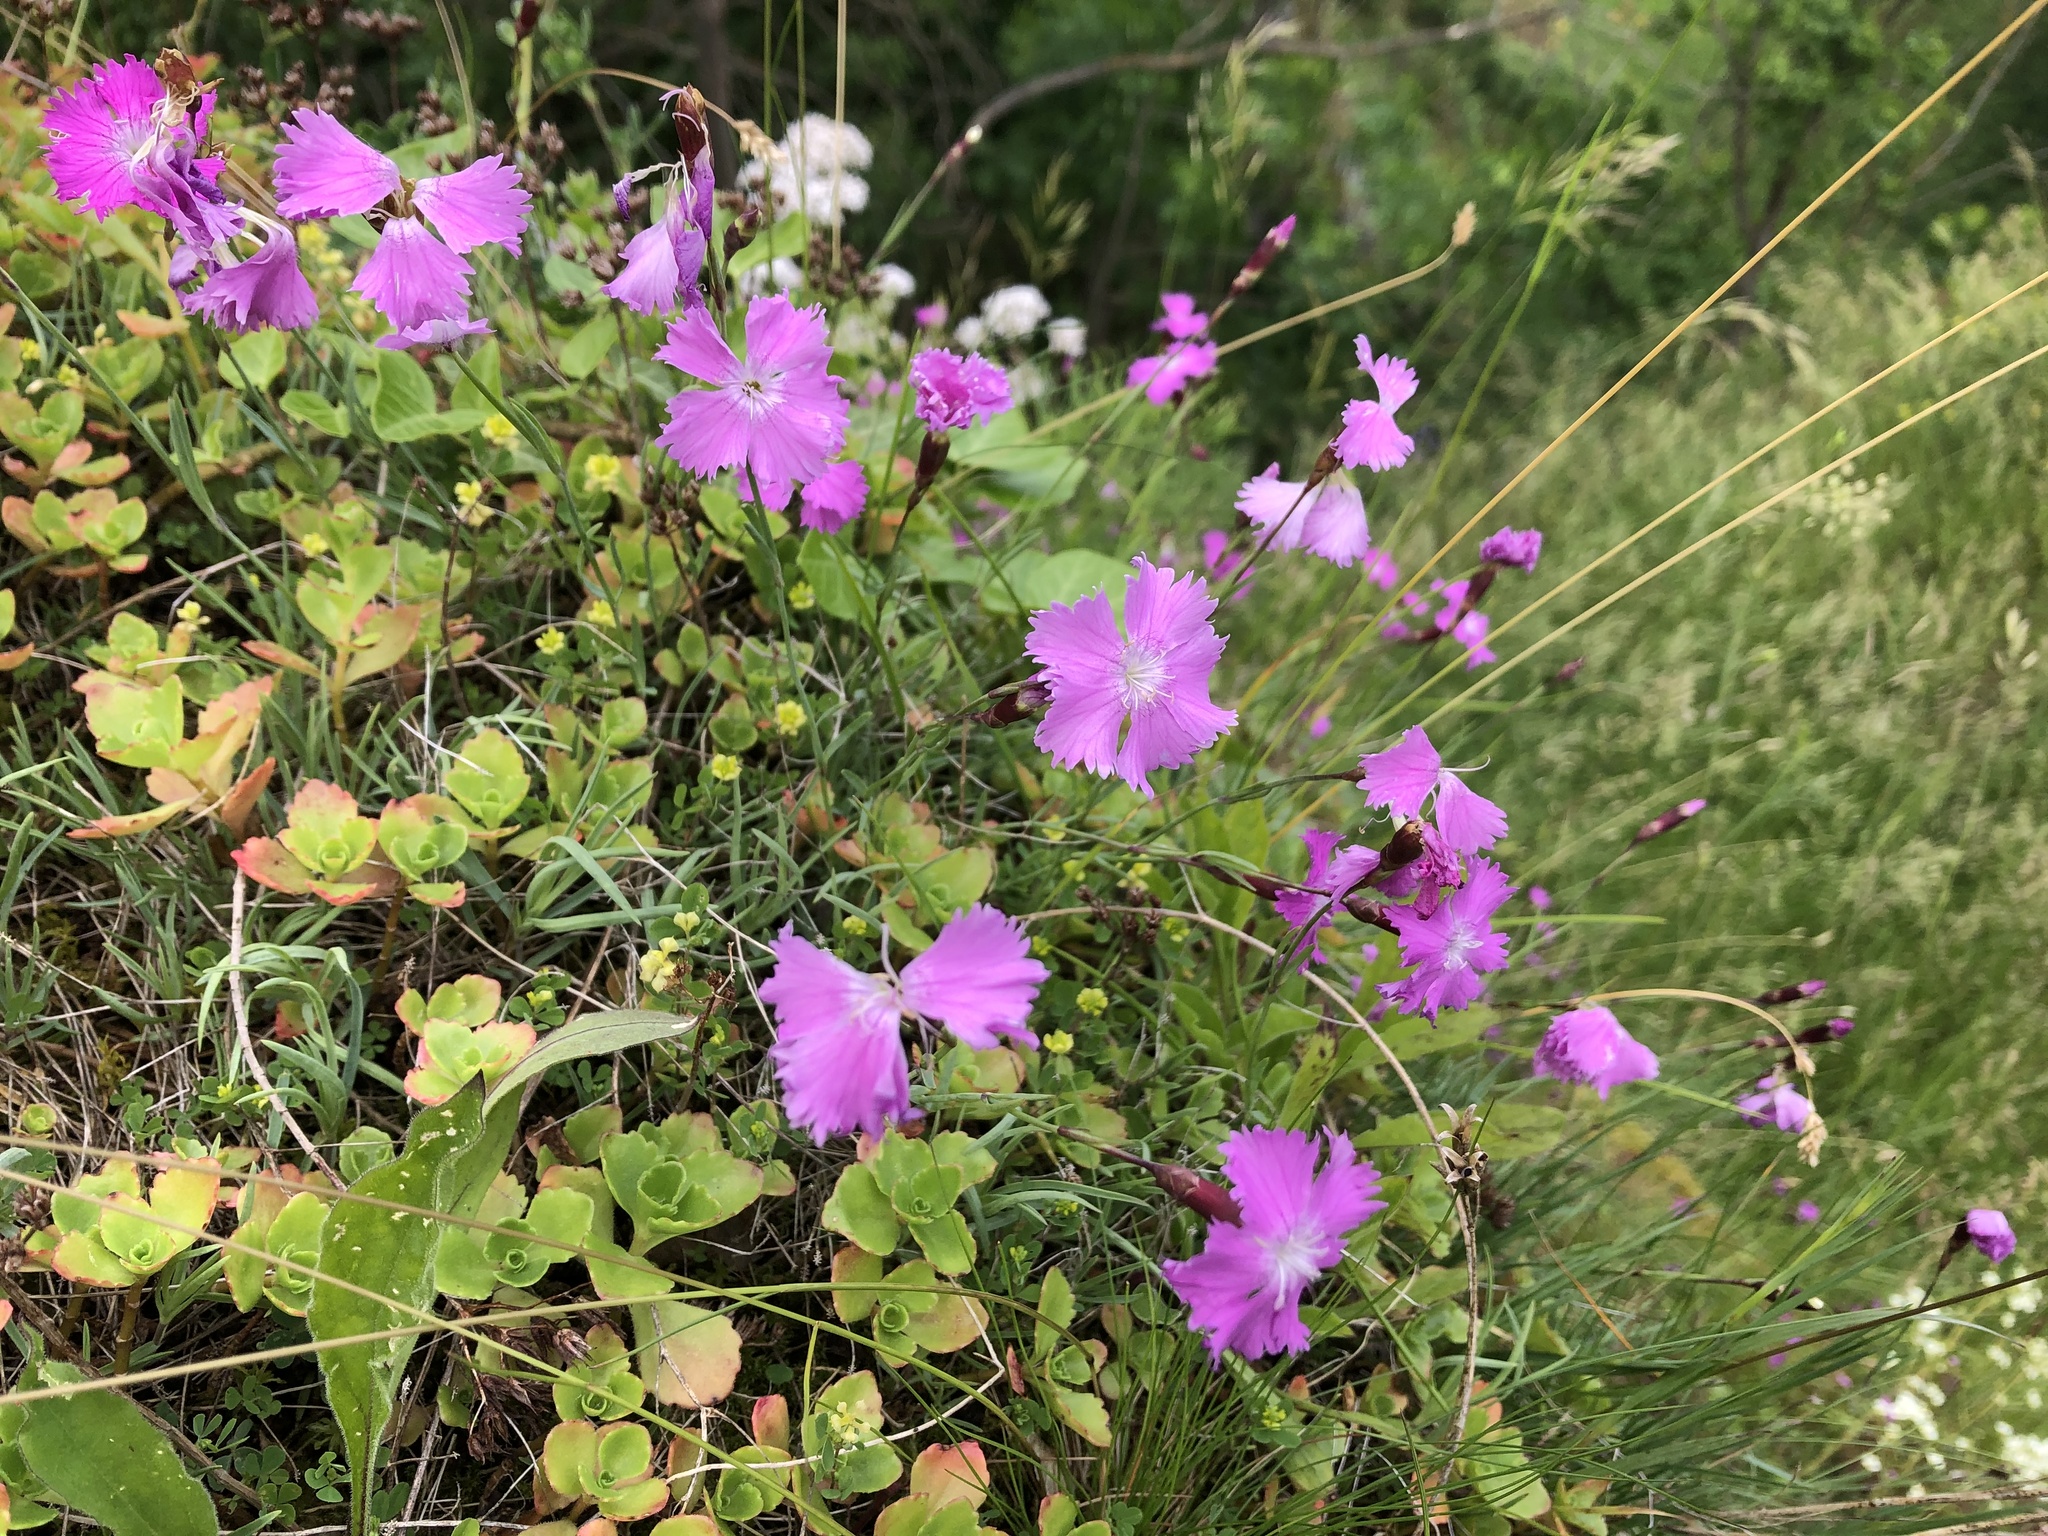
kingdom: Plantae
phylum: Tracheophyta
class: Magnoliopsida
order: Caryophyllales
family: Caryophyllaceae
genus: Dianthus
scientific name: Dianthus gratianopolitanus
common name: Cheddar pink
